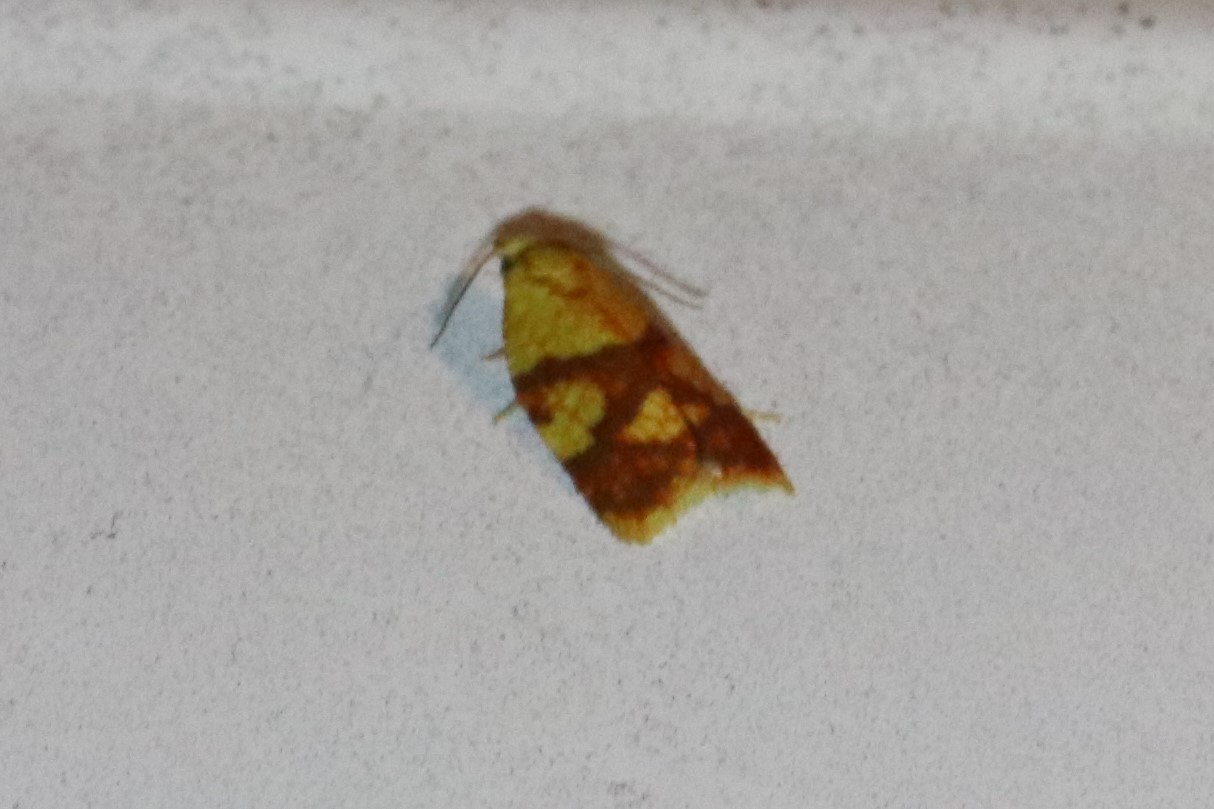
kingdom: Animalia
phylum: Arthropoda
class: Insecta
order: Lepidoptera
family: Tortricidae
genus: Sparganothis
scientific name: Sparganothis sulfureana
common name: Sparganothis fruitworm moth
